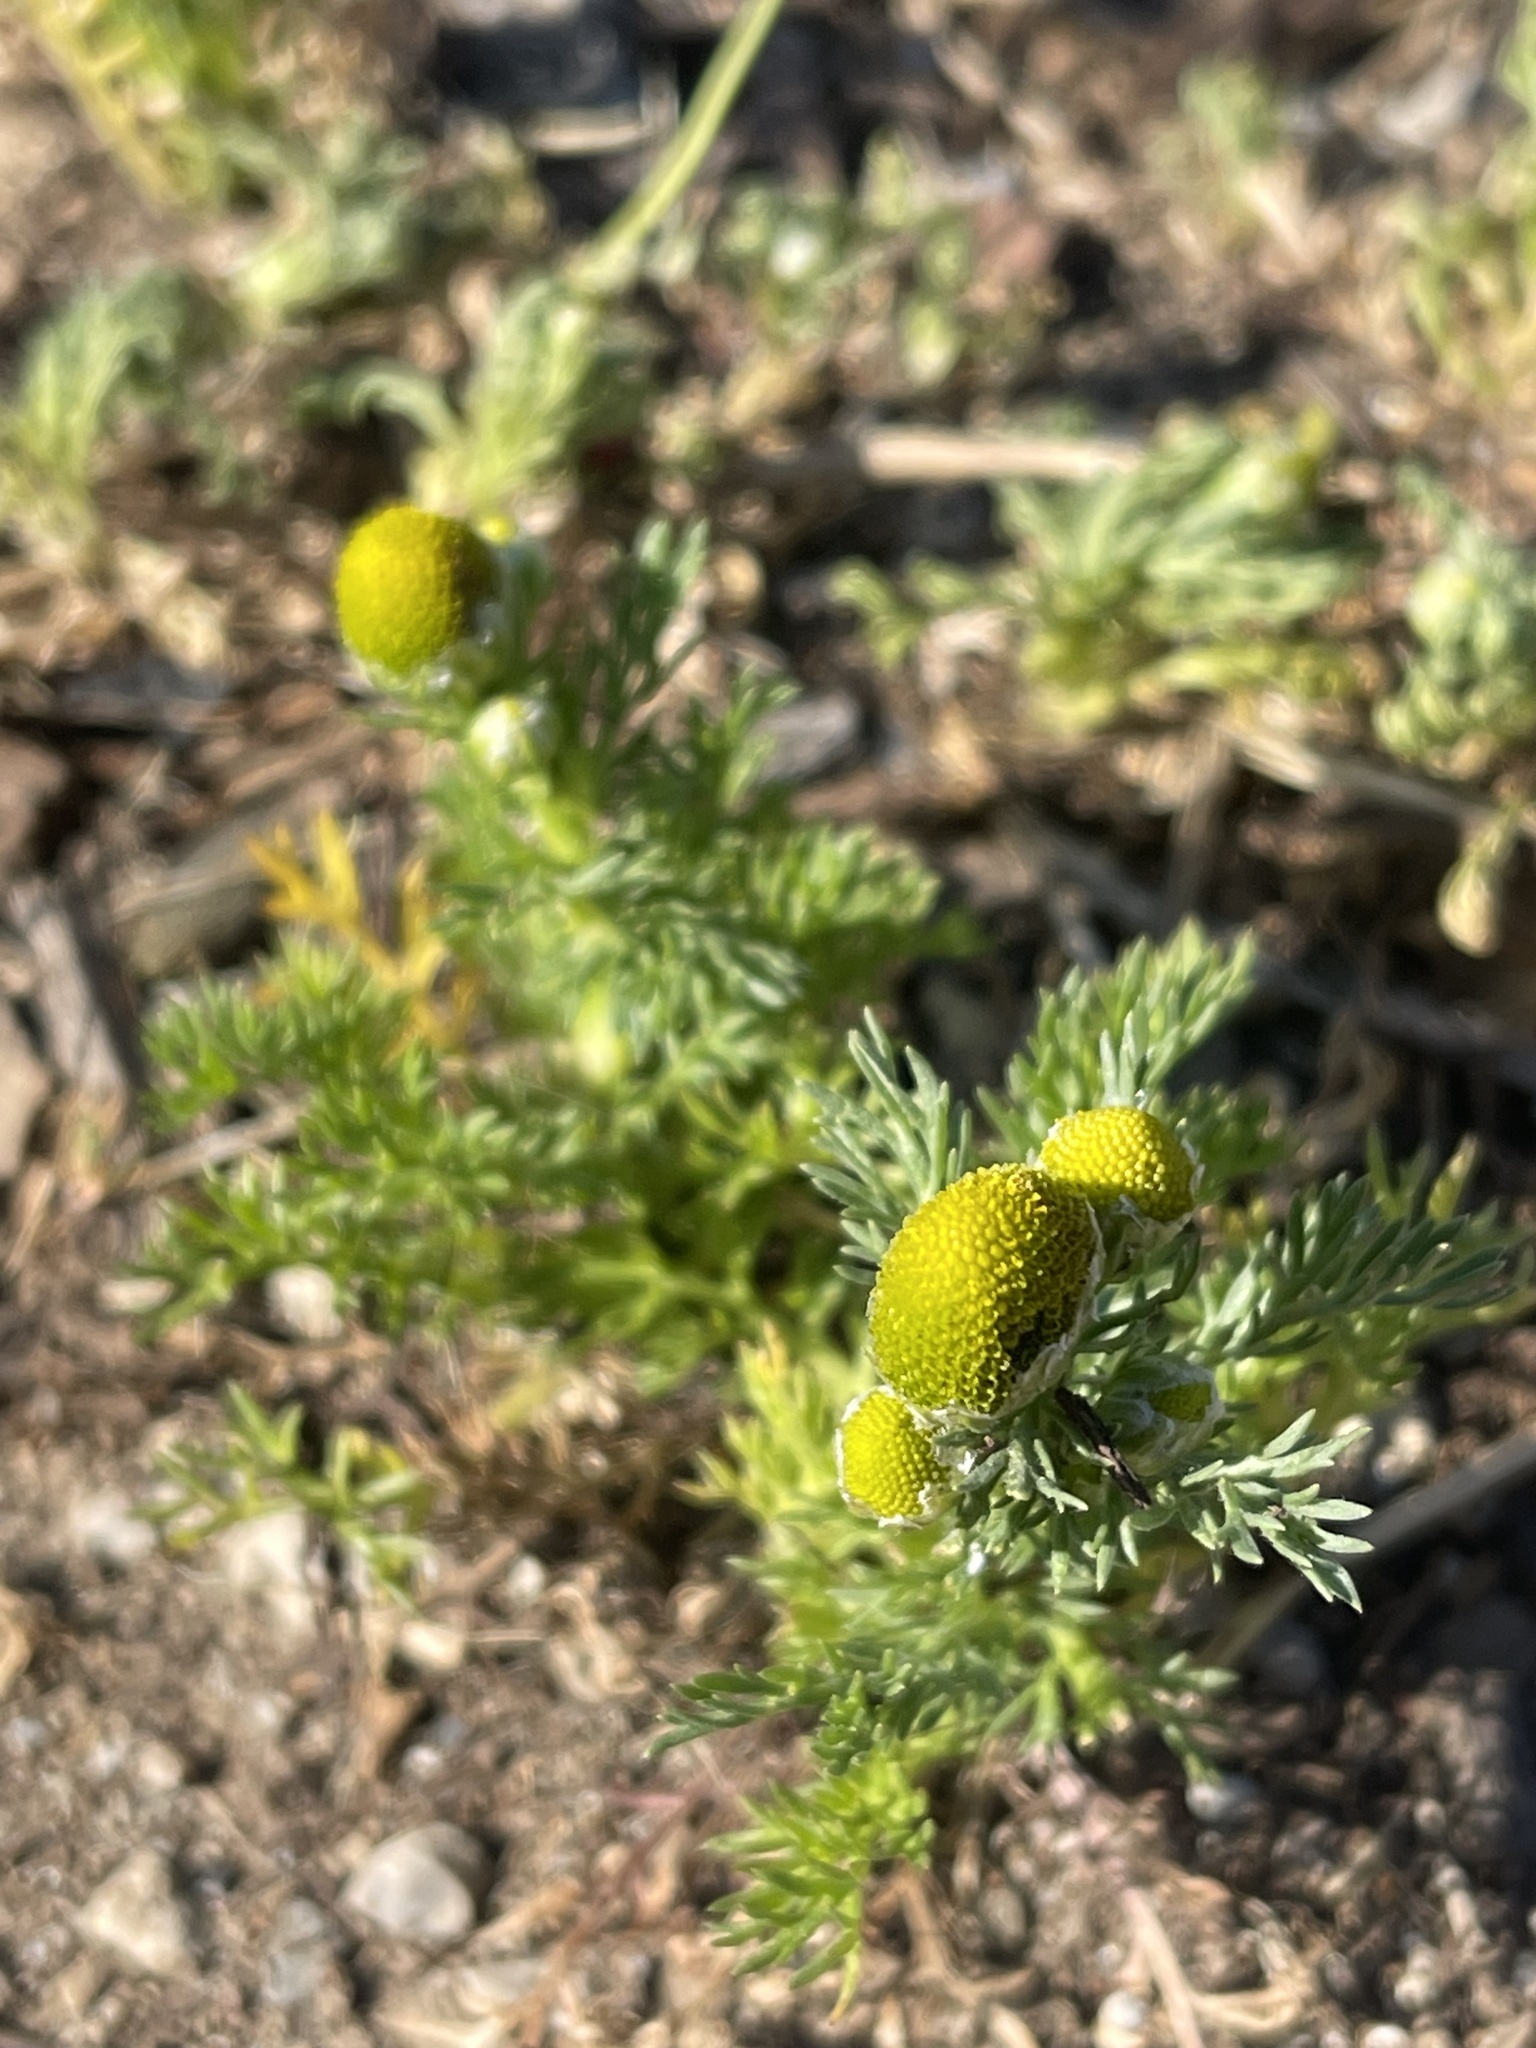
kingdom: Plantae
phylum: Tracheophyta
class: Magnoliopsida
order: Asterales
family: Asteraceae
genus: Matricaria
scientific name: Matricaria discoidea
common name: Disc mayweed
